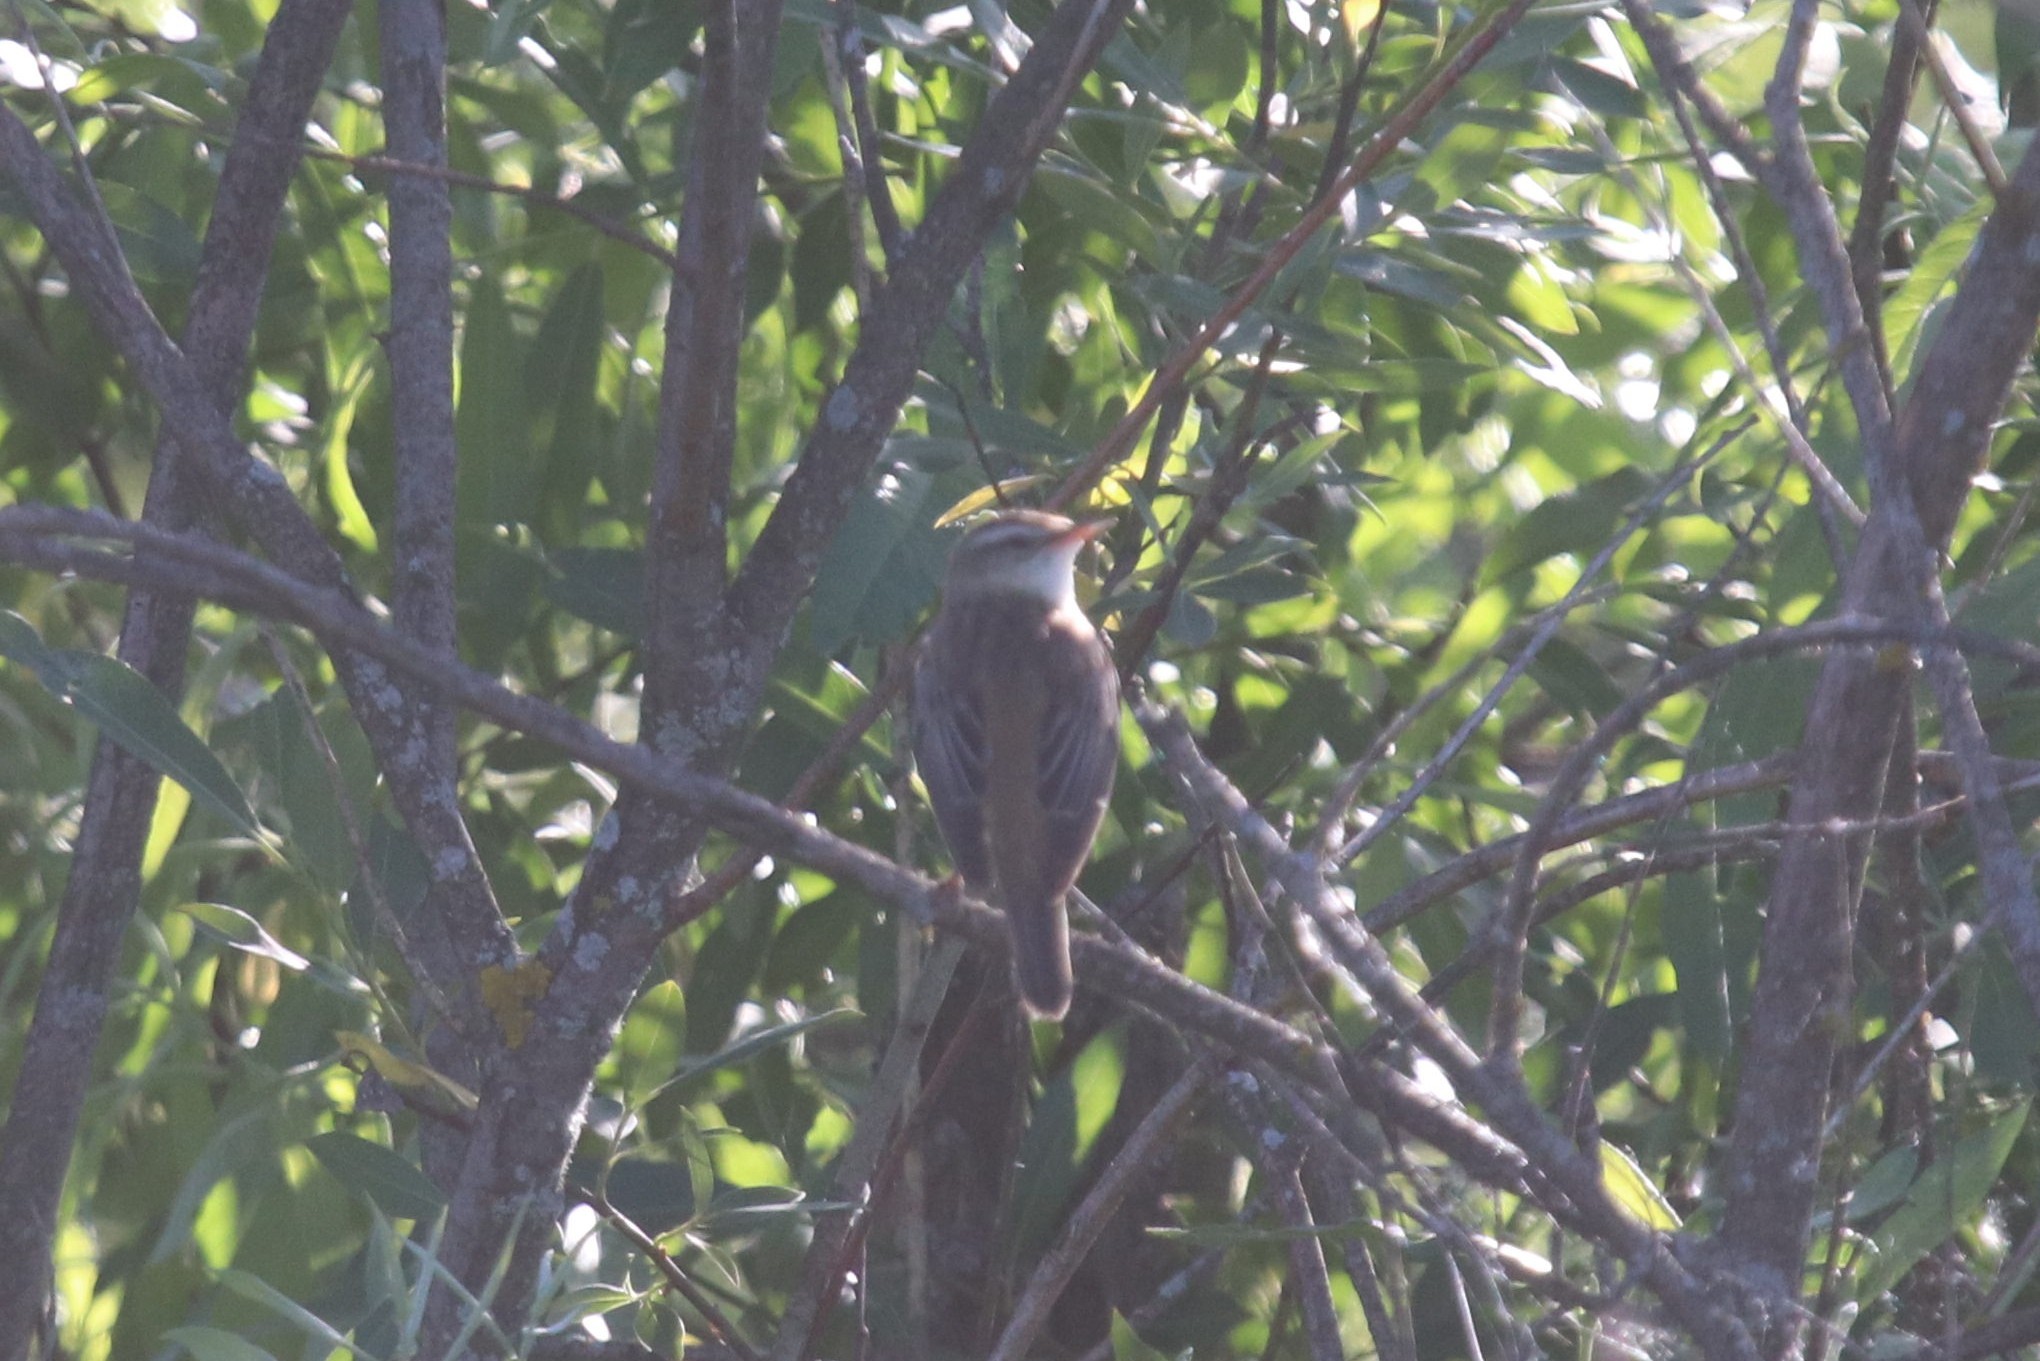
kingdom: Animalia
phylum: Chordata
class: Aves
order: Passeriformes
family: Acrocephalidae
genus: Acrocephalus
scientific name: Acrocephalus schoenobaenus
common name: Sedge warbler
